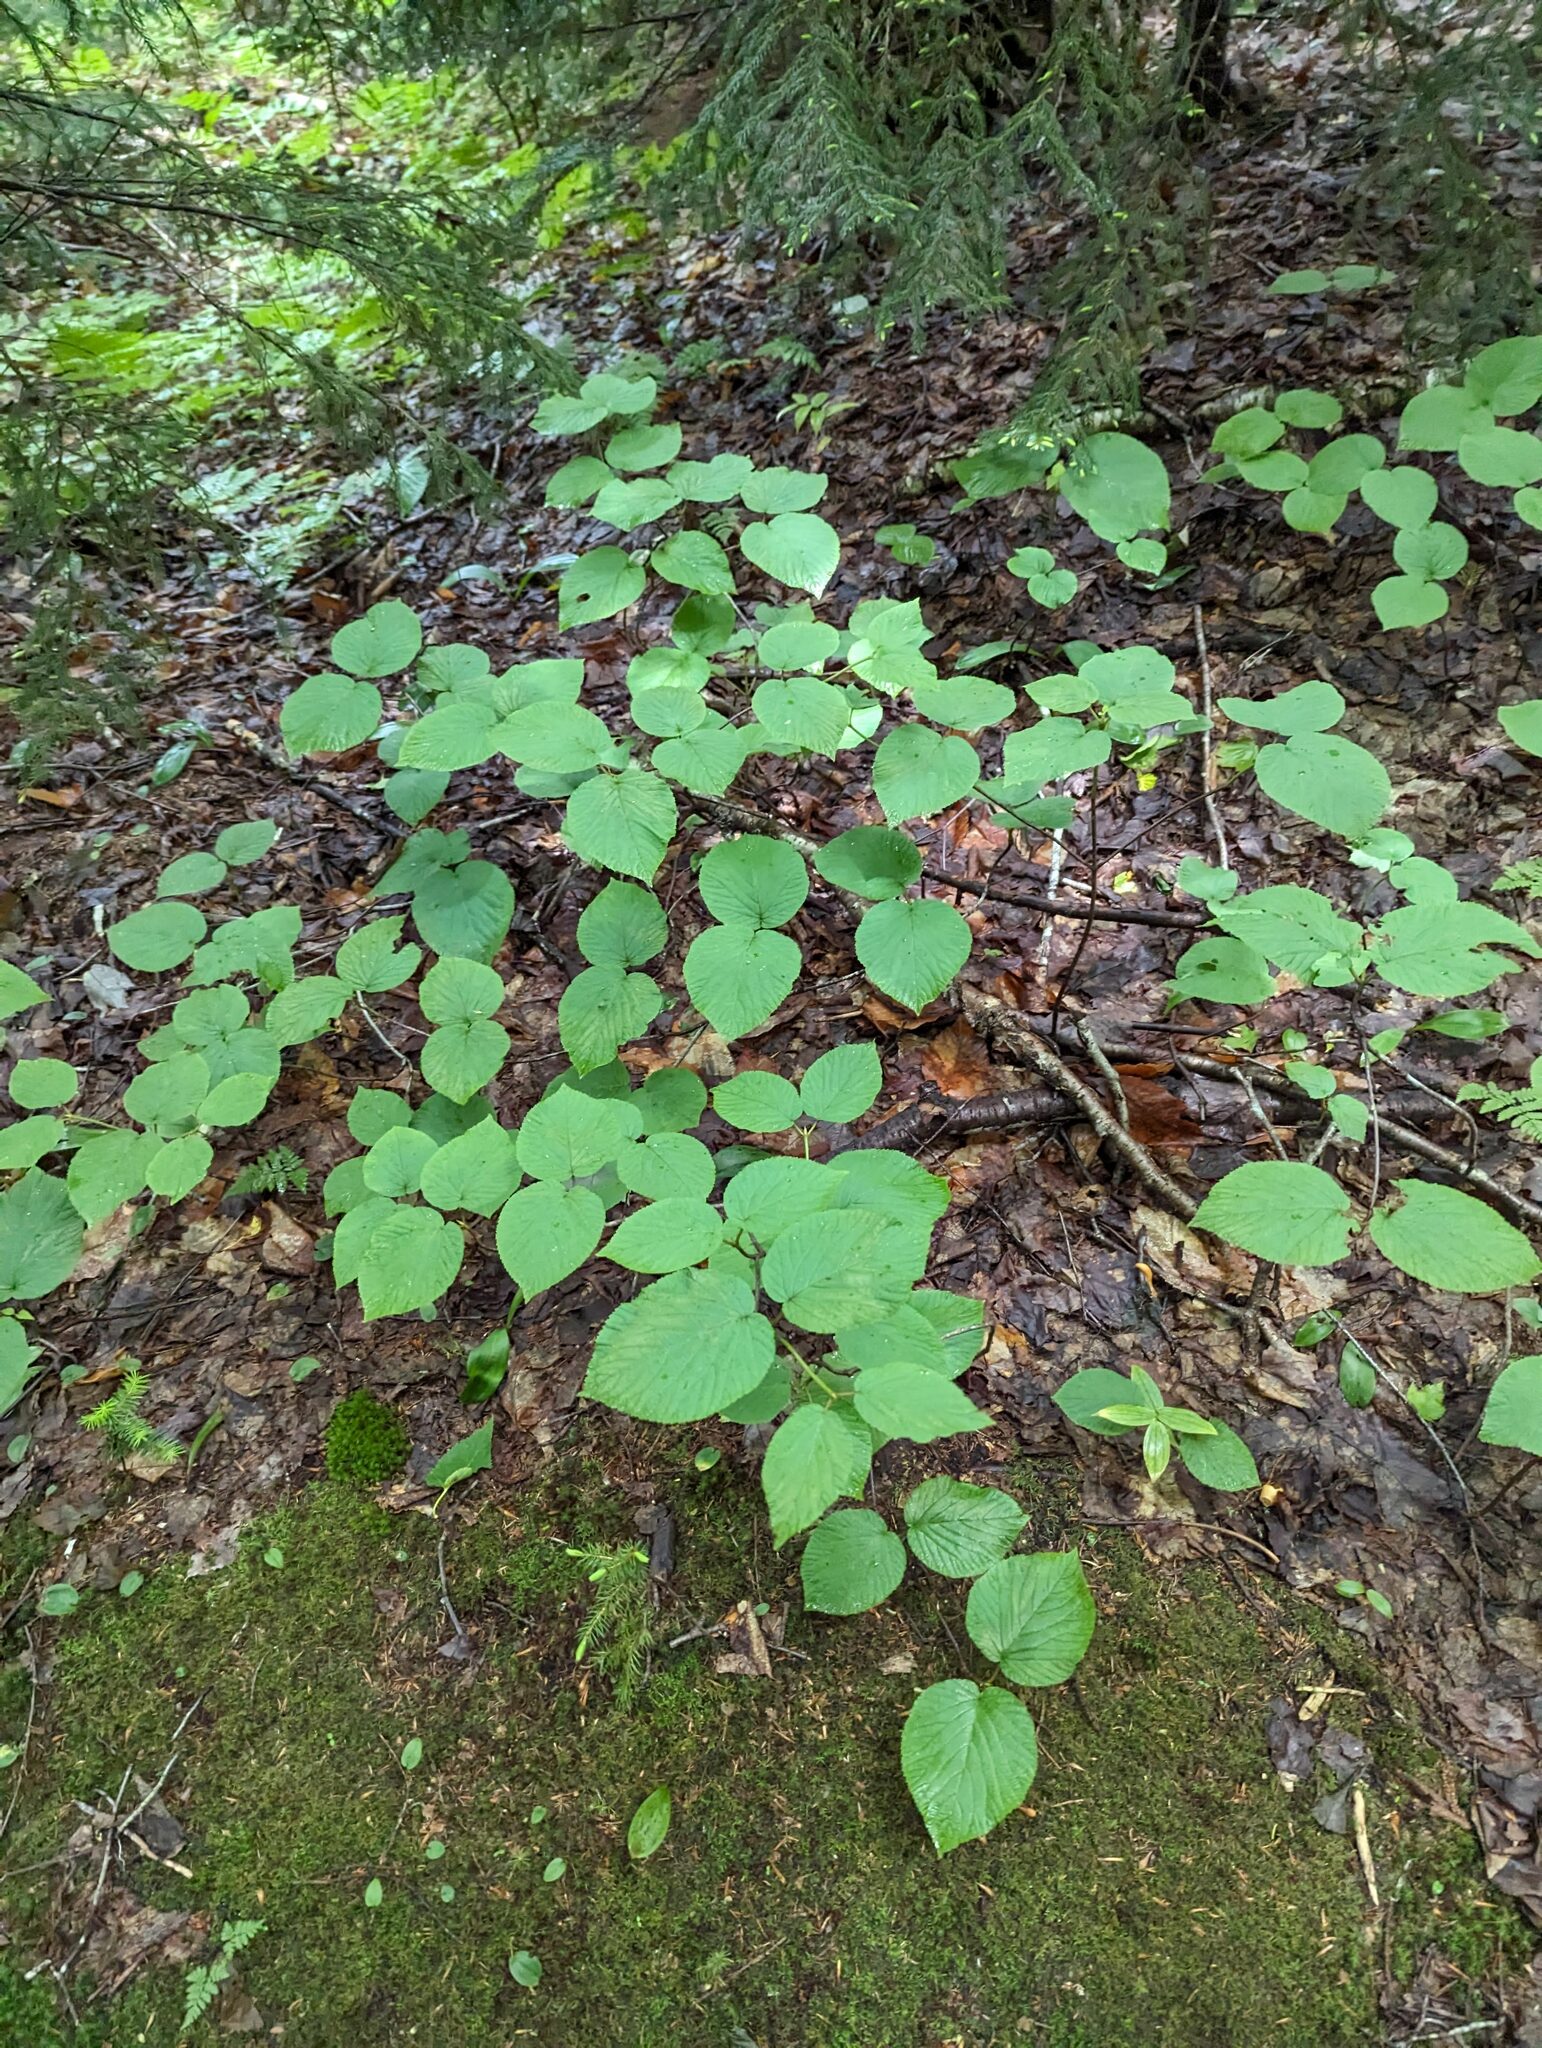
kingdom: Plantae
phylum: Tracheophyta
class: Magnoliopsida
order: Dipsacales
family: Viburnaceae
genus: Viburnum
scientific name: Viburnum lantanoides
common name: Hobblebush
